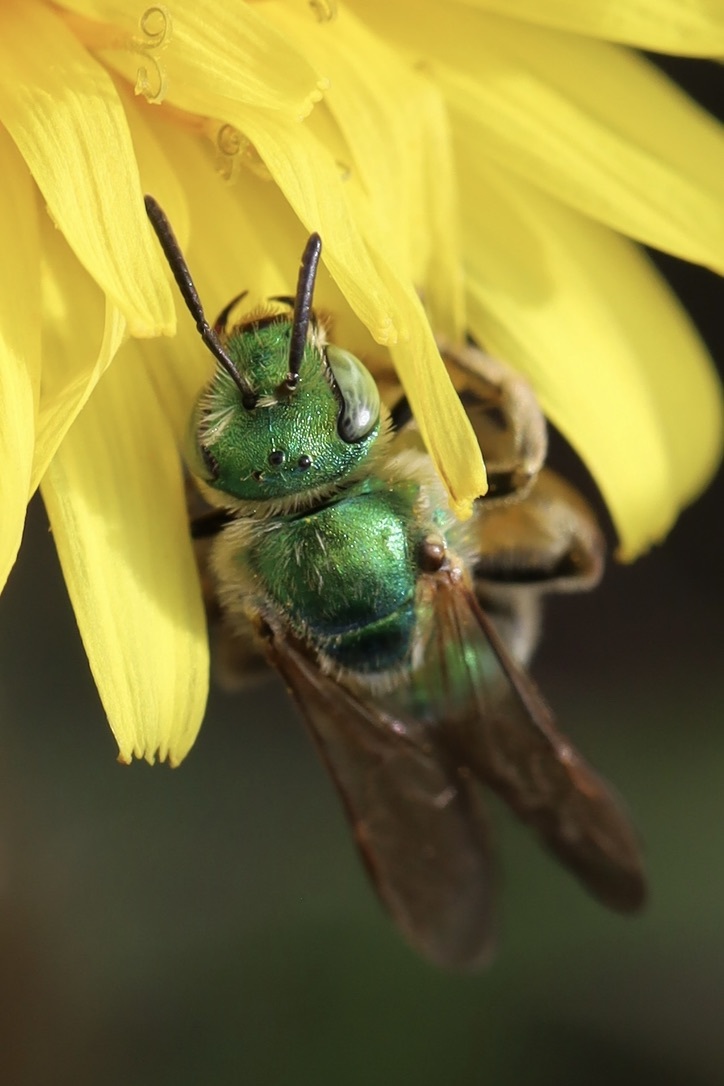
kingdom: Animalia
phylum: Arthropoda
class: Insecta
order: Hymenoptera
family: Halictidae
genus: Agapostemon
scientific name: Agapostemon texanus
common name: Texas striped sweat bee
